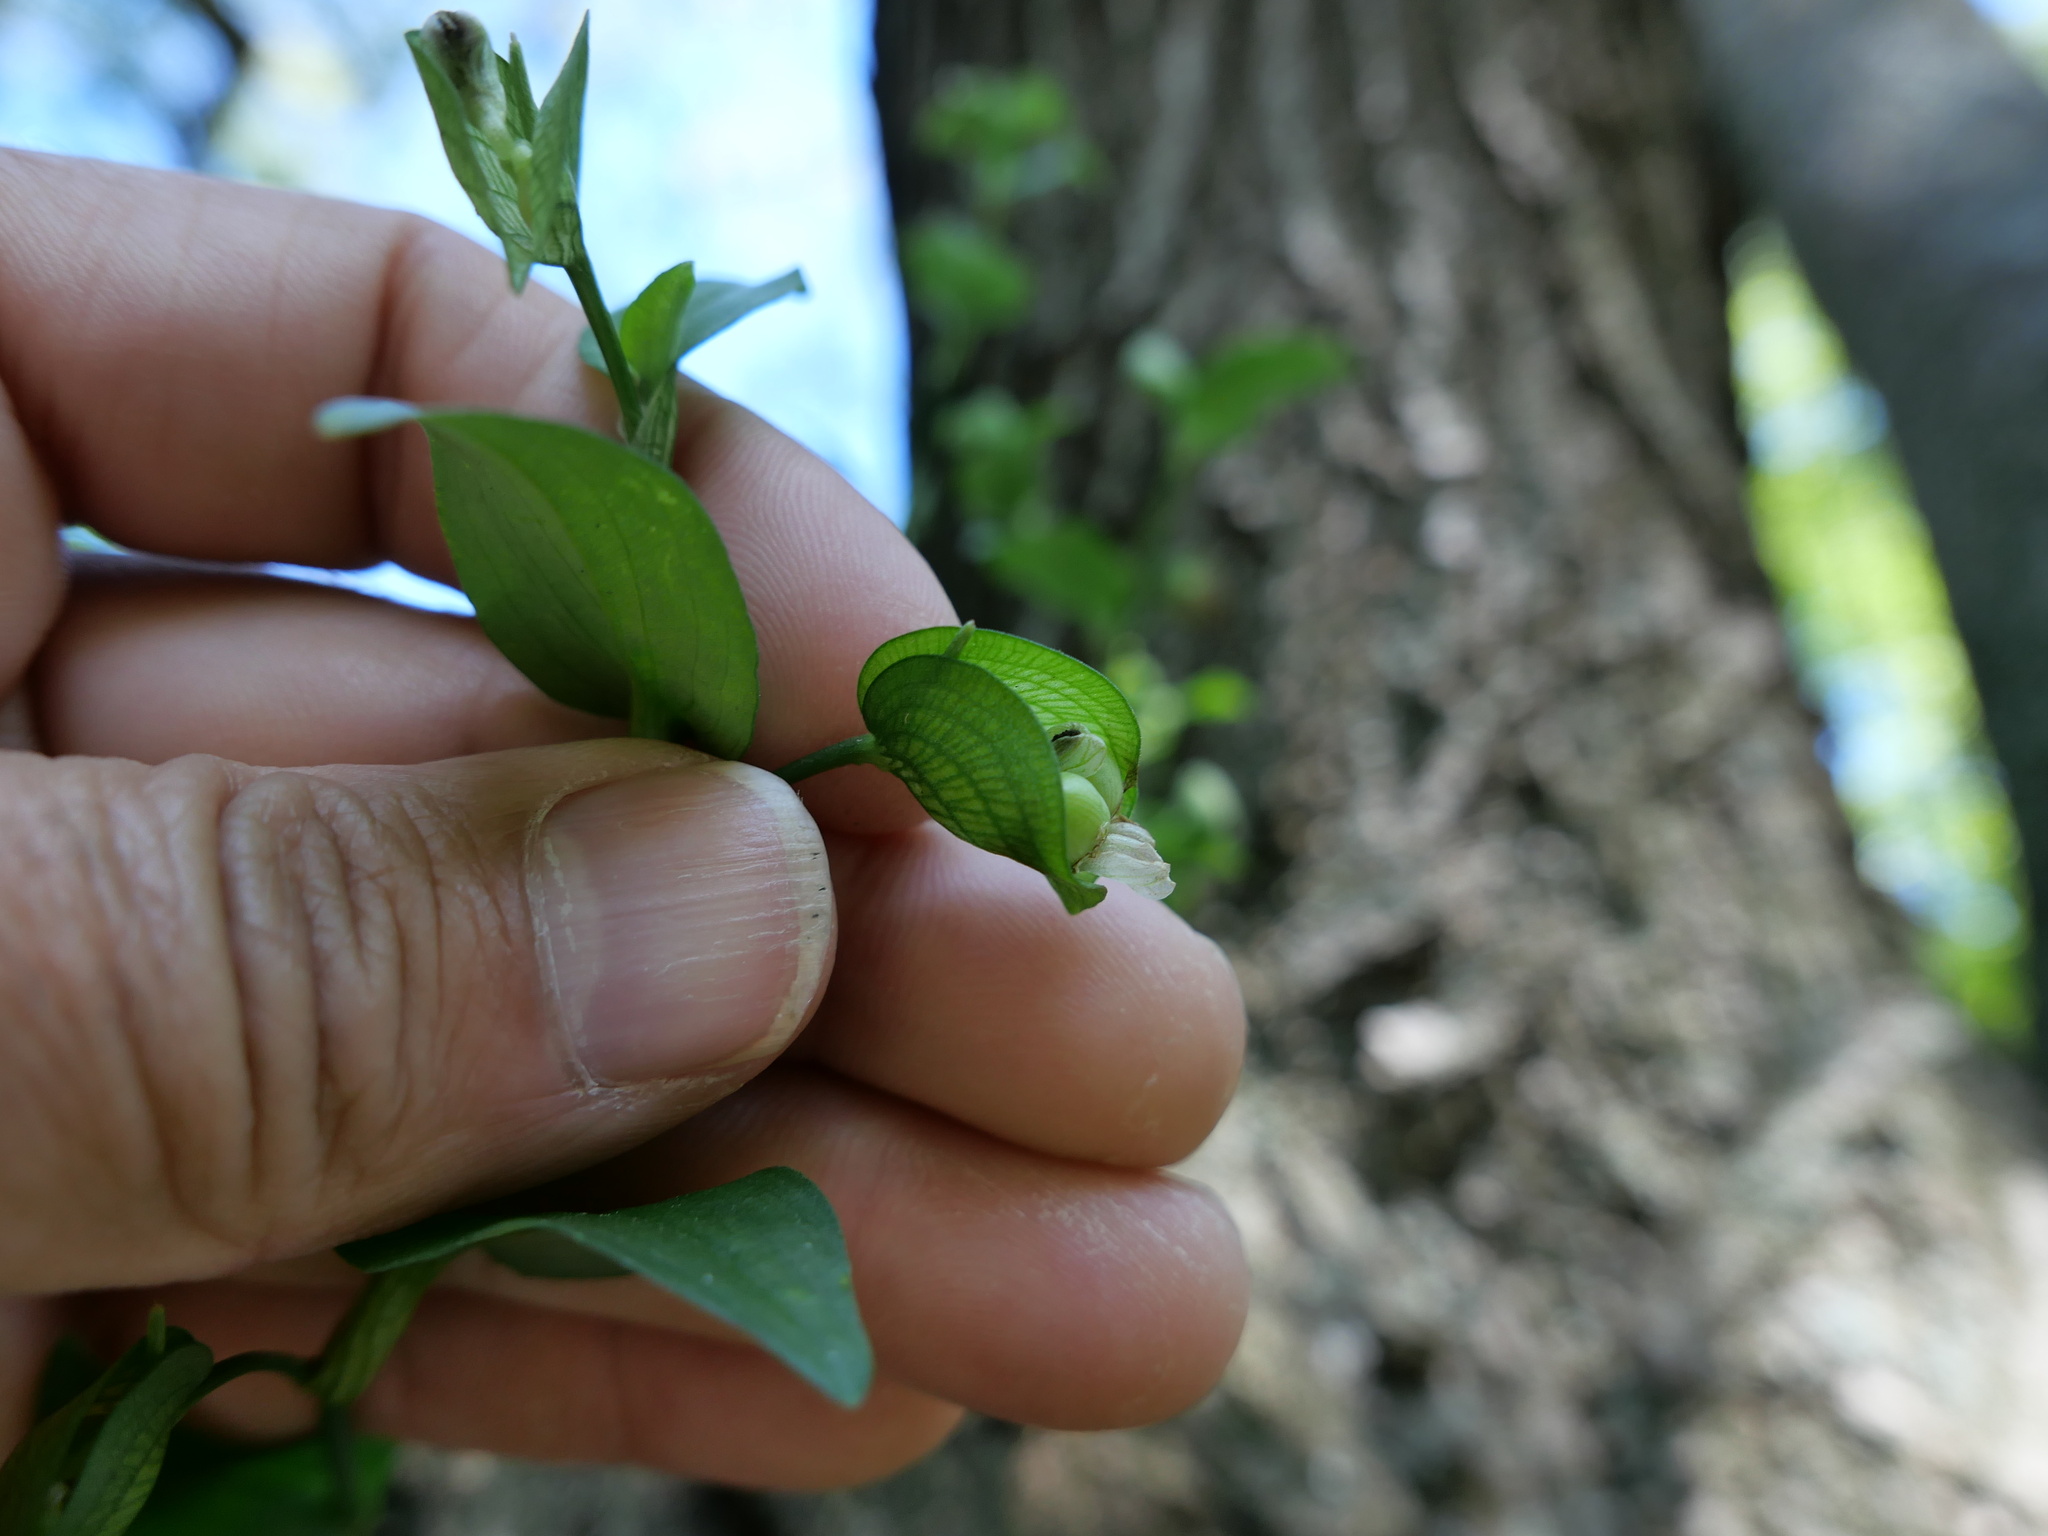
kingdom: Plantae
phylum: Tracheophyta
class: Liliopsida
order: Commelinales
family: Commelinaceae
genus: Commelina
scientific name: Commelina communis
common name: Asiatic dayflower
